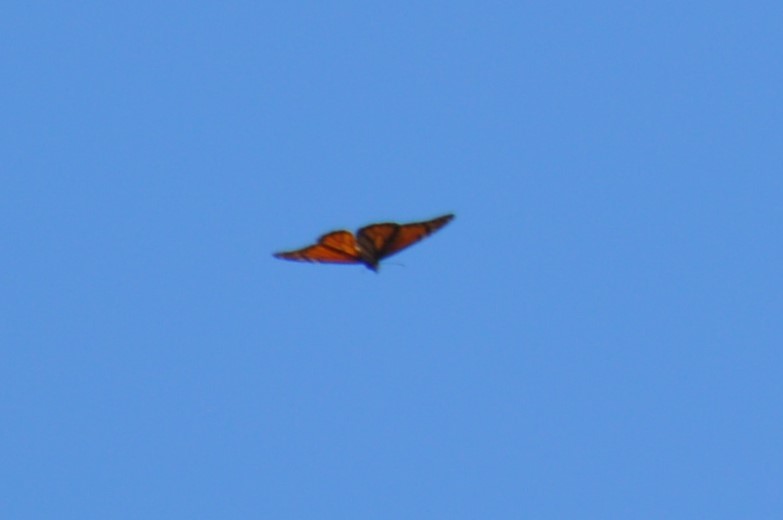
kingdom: Animalia
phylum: Arthropoda
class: Insecta
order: Lepidoptera
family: Nymphalidae
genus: Danaus
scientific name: Danaus plexippus
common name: Monarch
